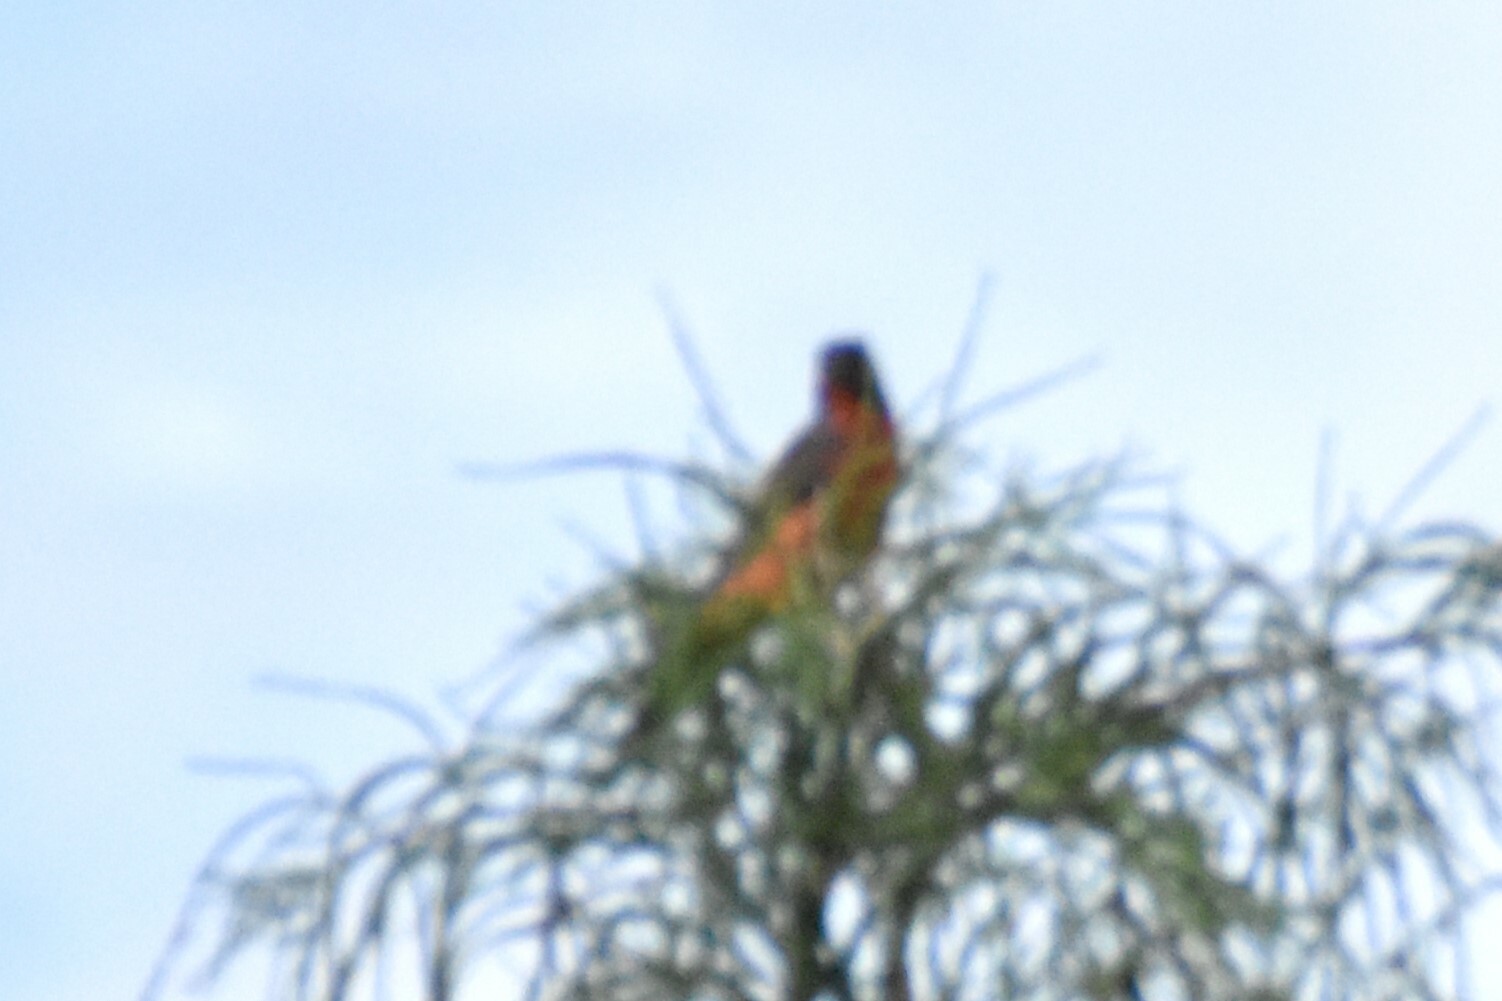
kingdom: Animalia
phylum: Chordata
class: Aves
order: Passeriformes
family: Cardinalidae
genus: Passerina
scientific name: Passerina ciris
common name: Painted bunting
